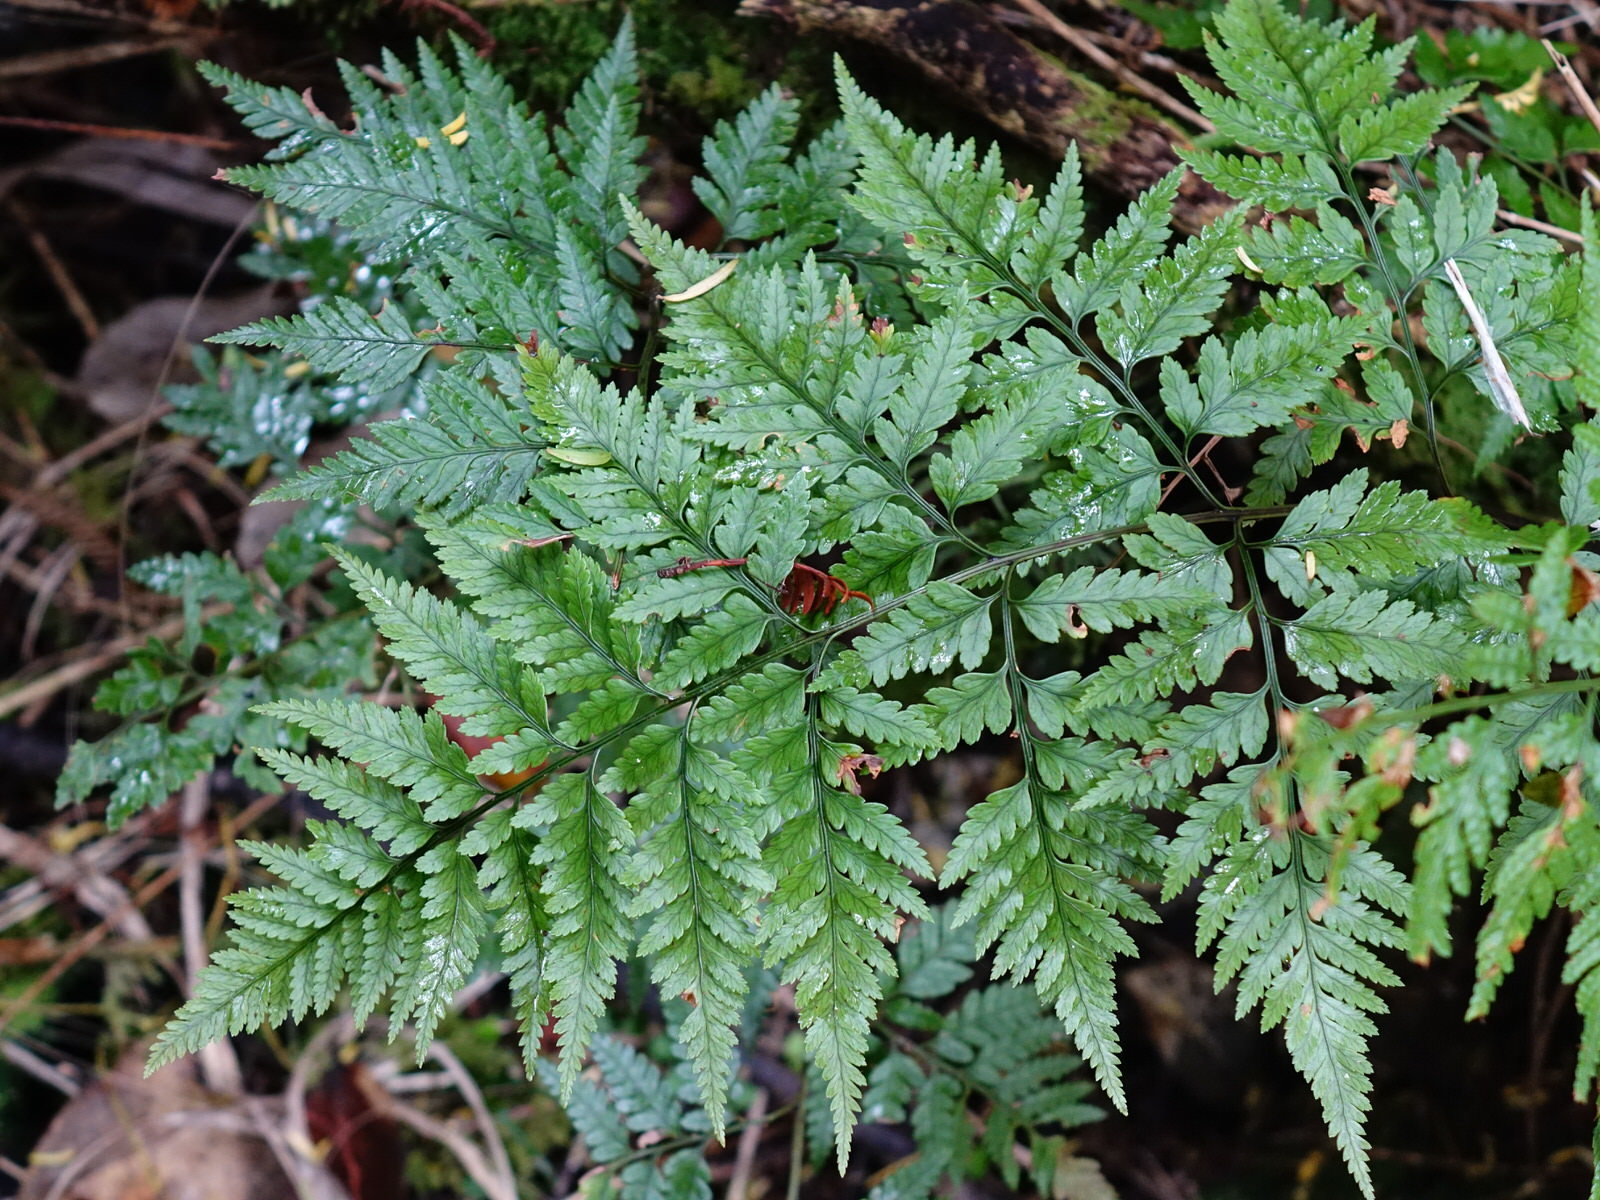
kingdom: Plantae
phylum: Tracheophyta
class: Polypodiopsida
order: Polypodiales
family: Dryopteridaceae
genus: Rumohra
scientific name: Rumohra adiantiformis
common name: Leather fern
